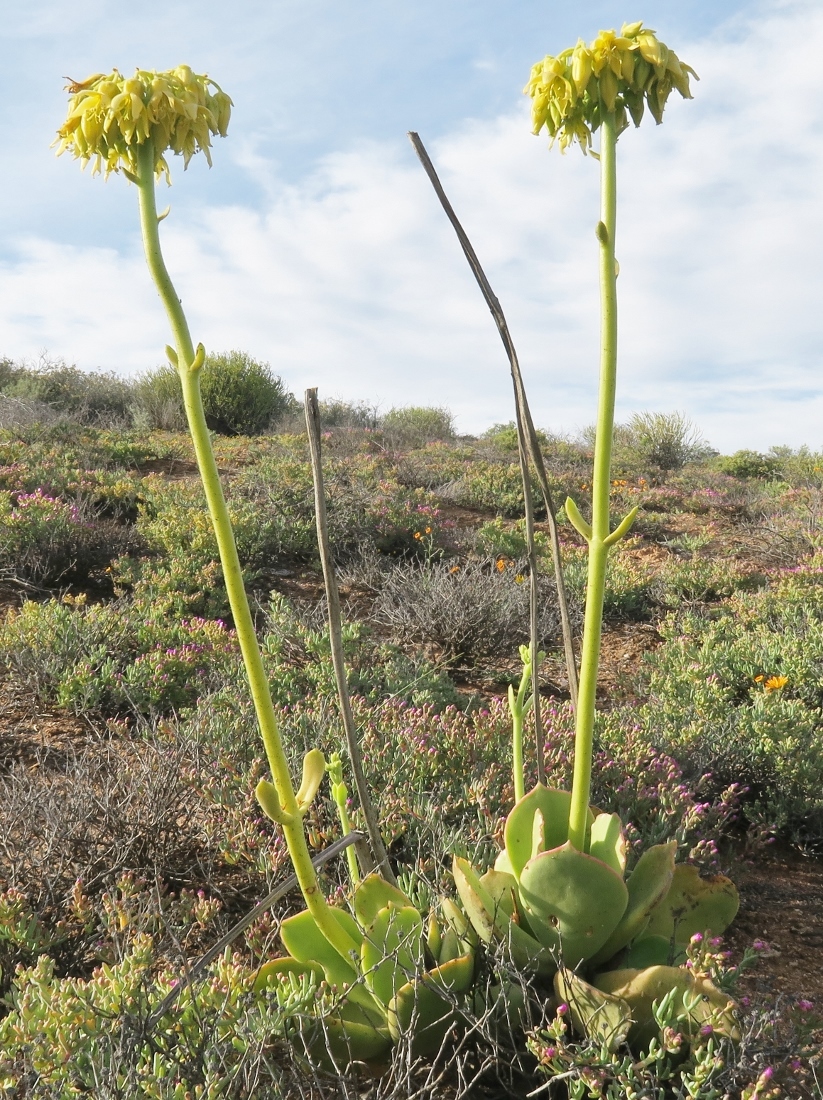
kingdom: Plantae
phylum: Tracheophyta
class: Magnoliopsida
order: Saxifragales
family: Crassulaceae
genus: Cotyledon
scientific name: Cotyledon cuneata
